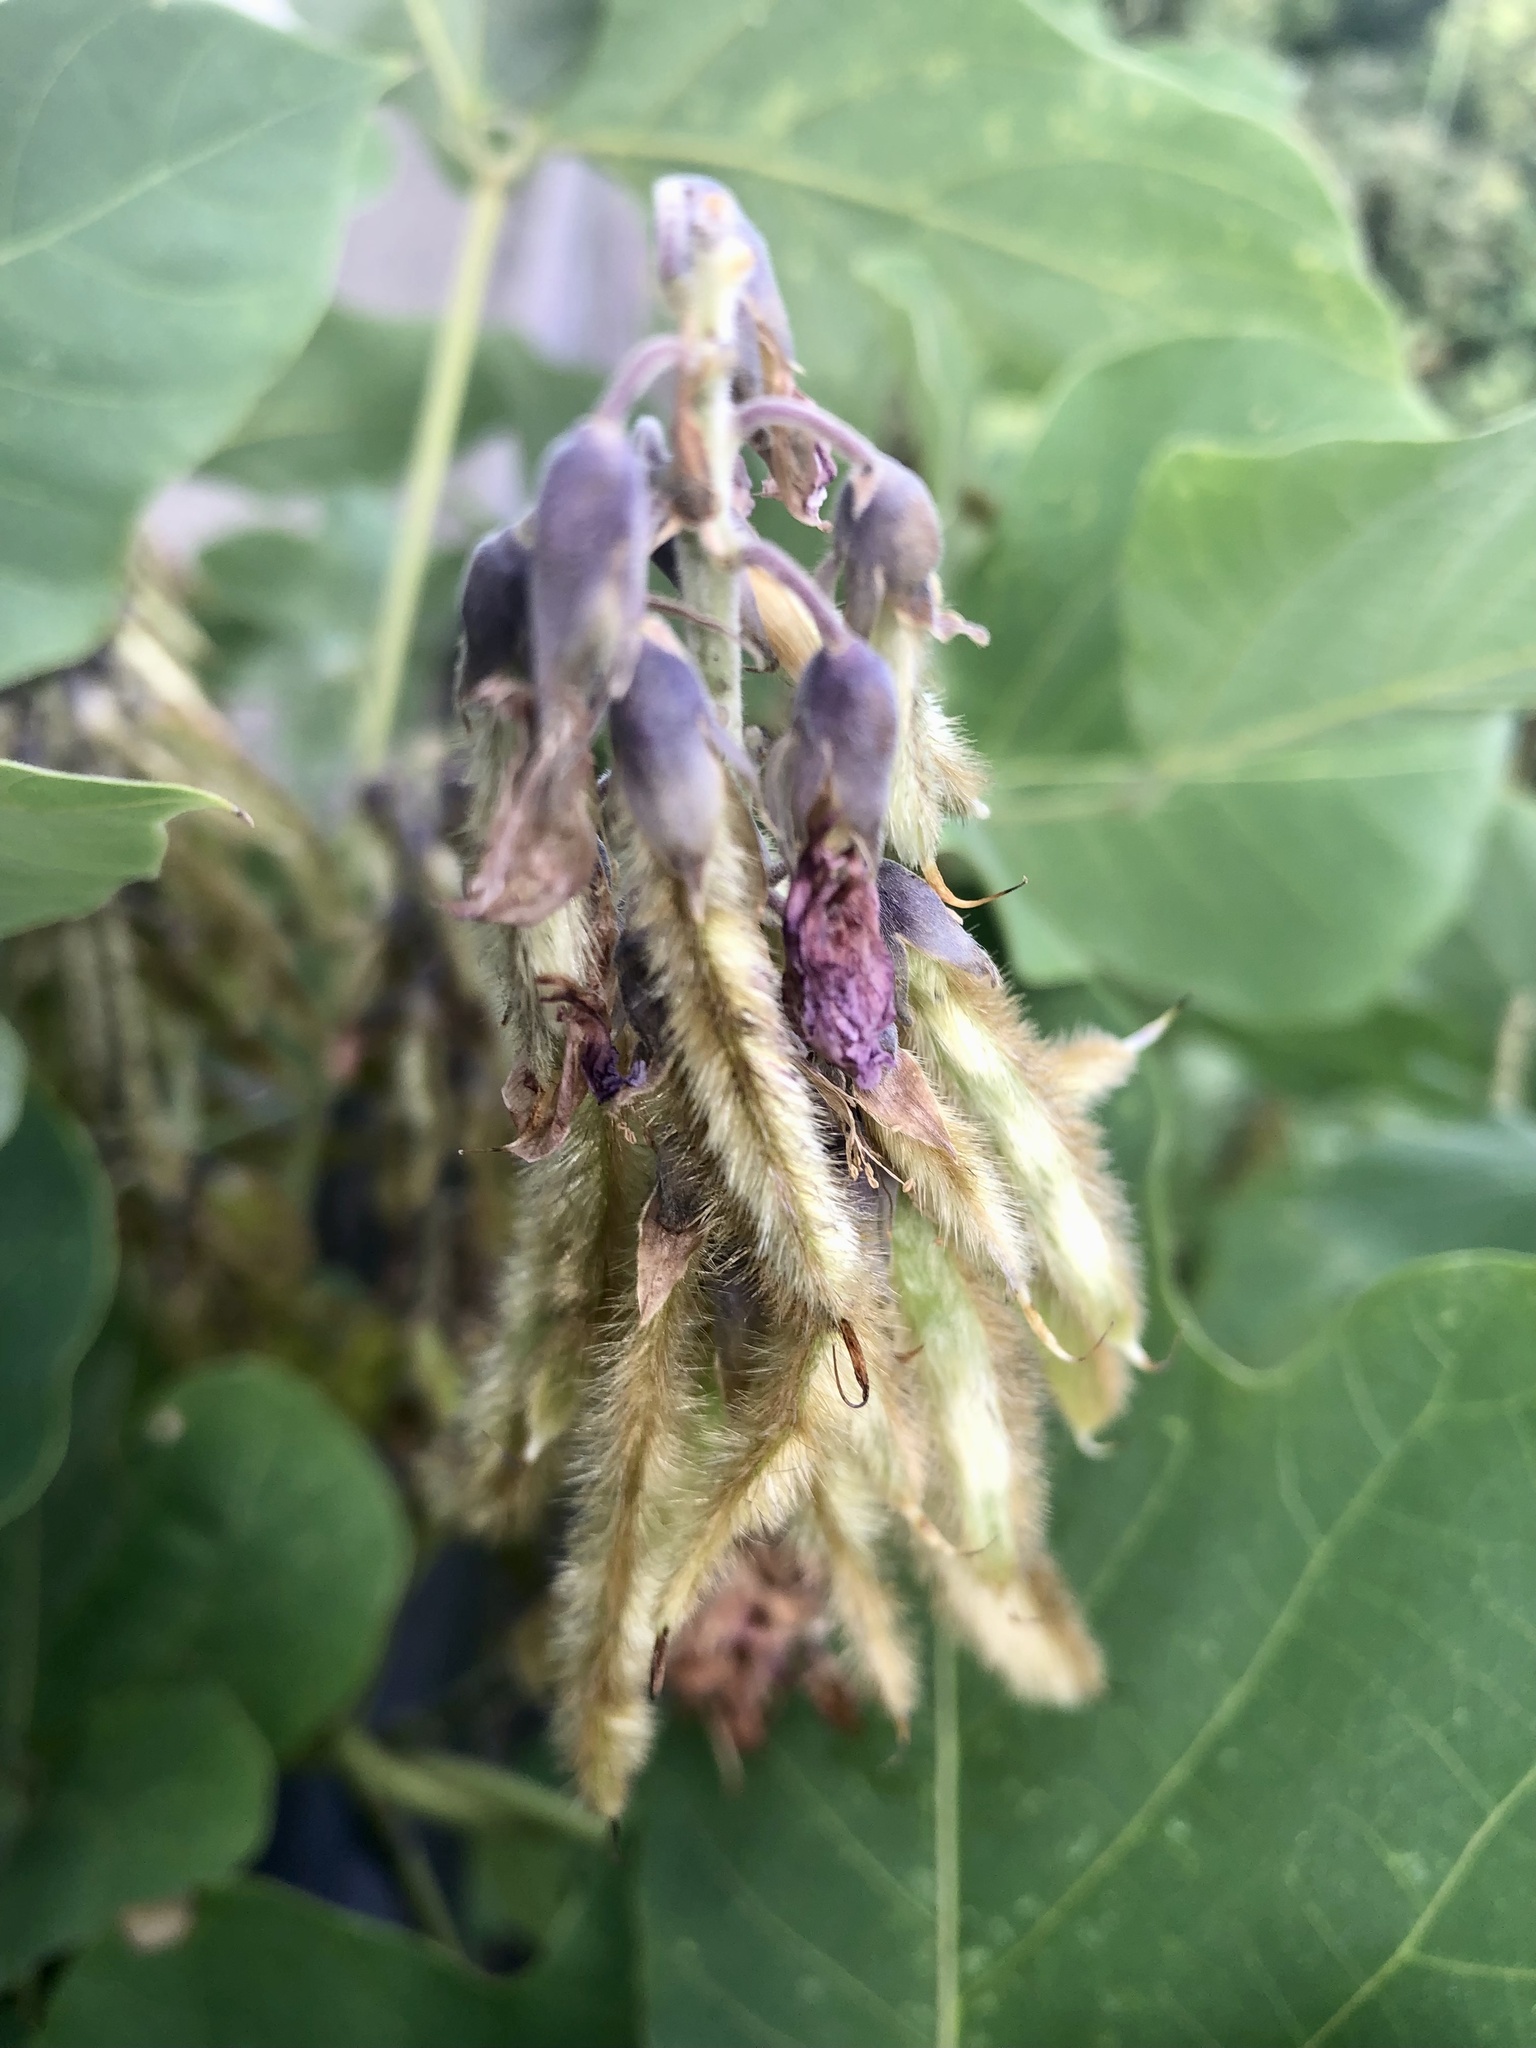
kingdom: Plantae
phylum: Tracheophyta
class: Magnoliopsida
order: Fabales
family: Fabaceae
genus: Pueraria
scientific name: Pueraria montana
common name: Kudzu
